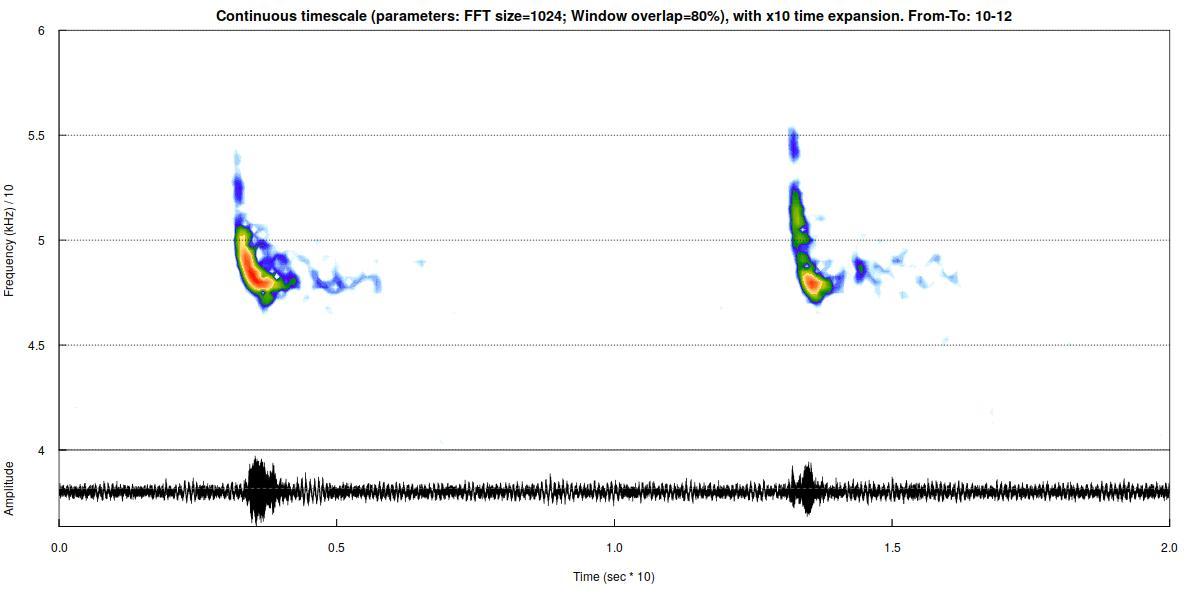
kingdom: Animalia
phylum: Chordata
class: Mammalia
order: Chiroptera
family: Vespertilionidae
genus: Pipistrellus
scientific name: Pipistrellus pipistrellus
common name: Common pipistrelle
